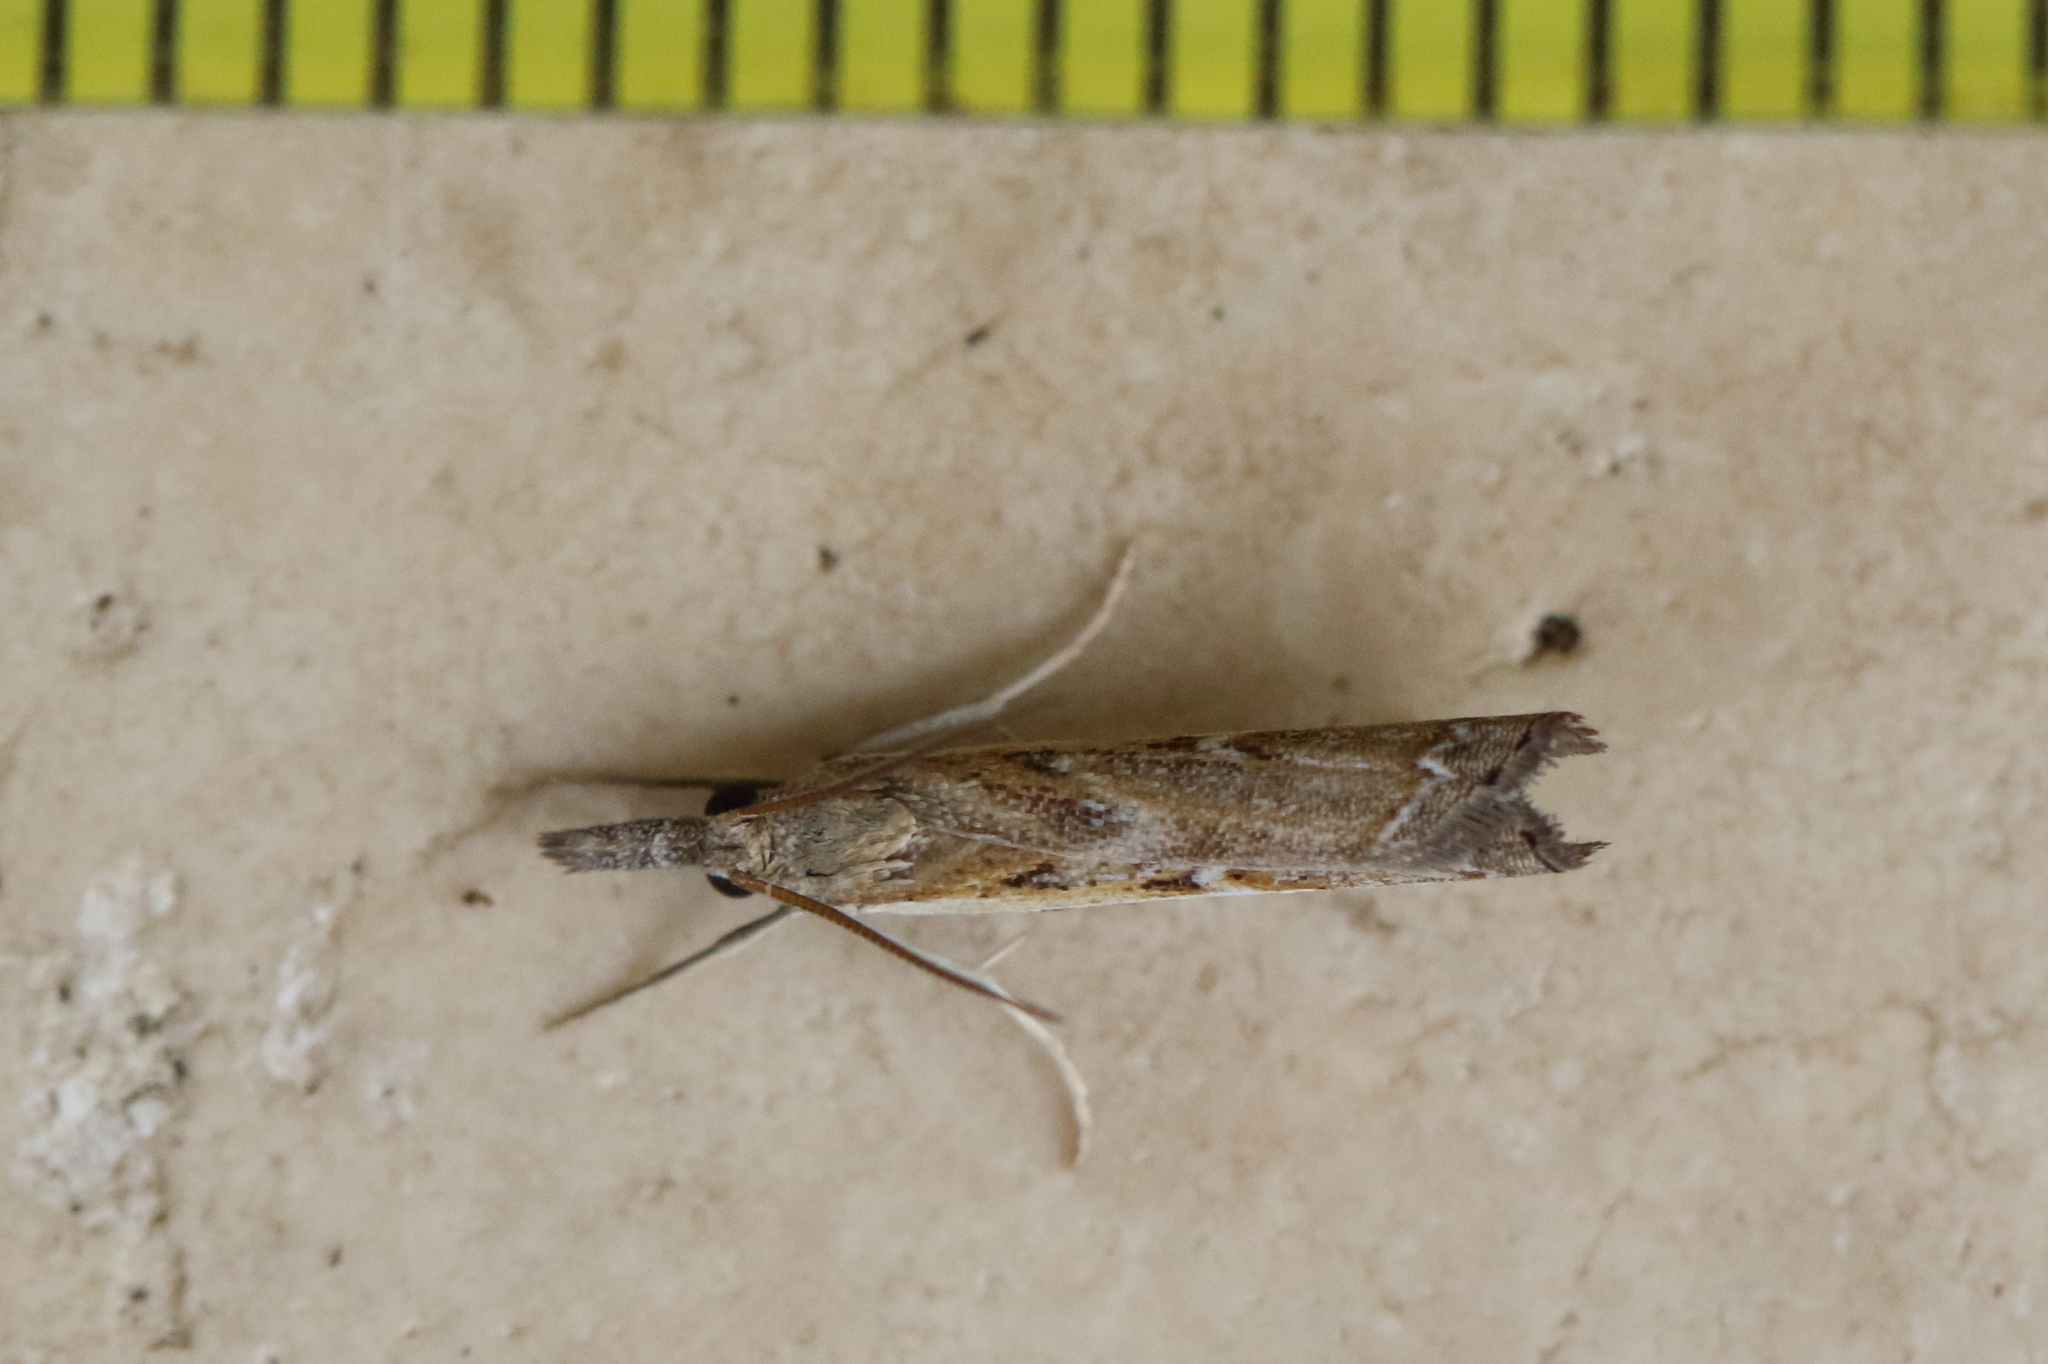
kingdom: Animalia
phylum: Arthropoda
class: Insecta
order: Lepidoptera
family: Crambidae
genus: Ptochostola
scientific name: Ptochostola microphaeellus
